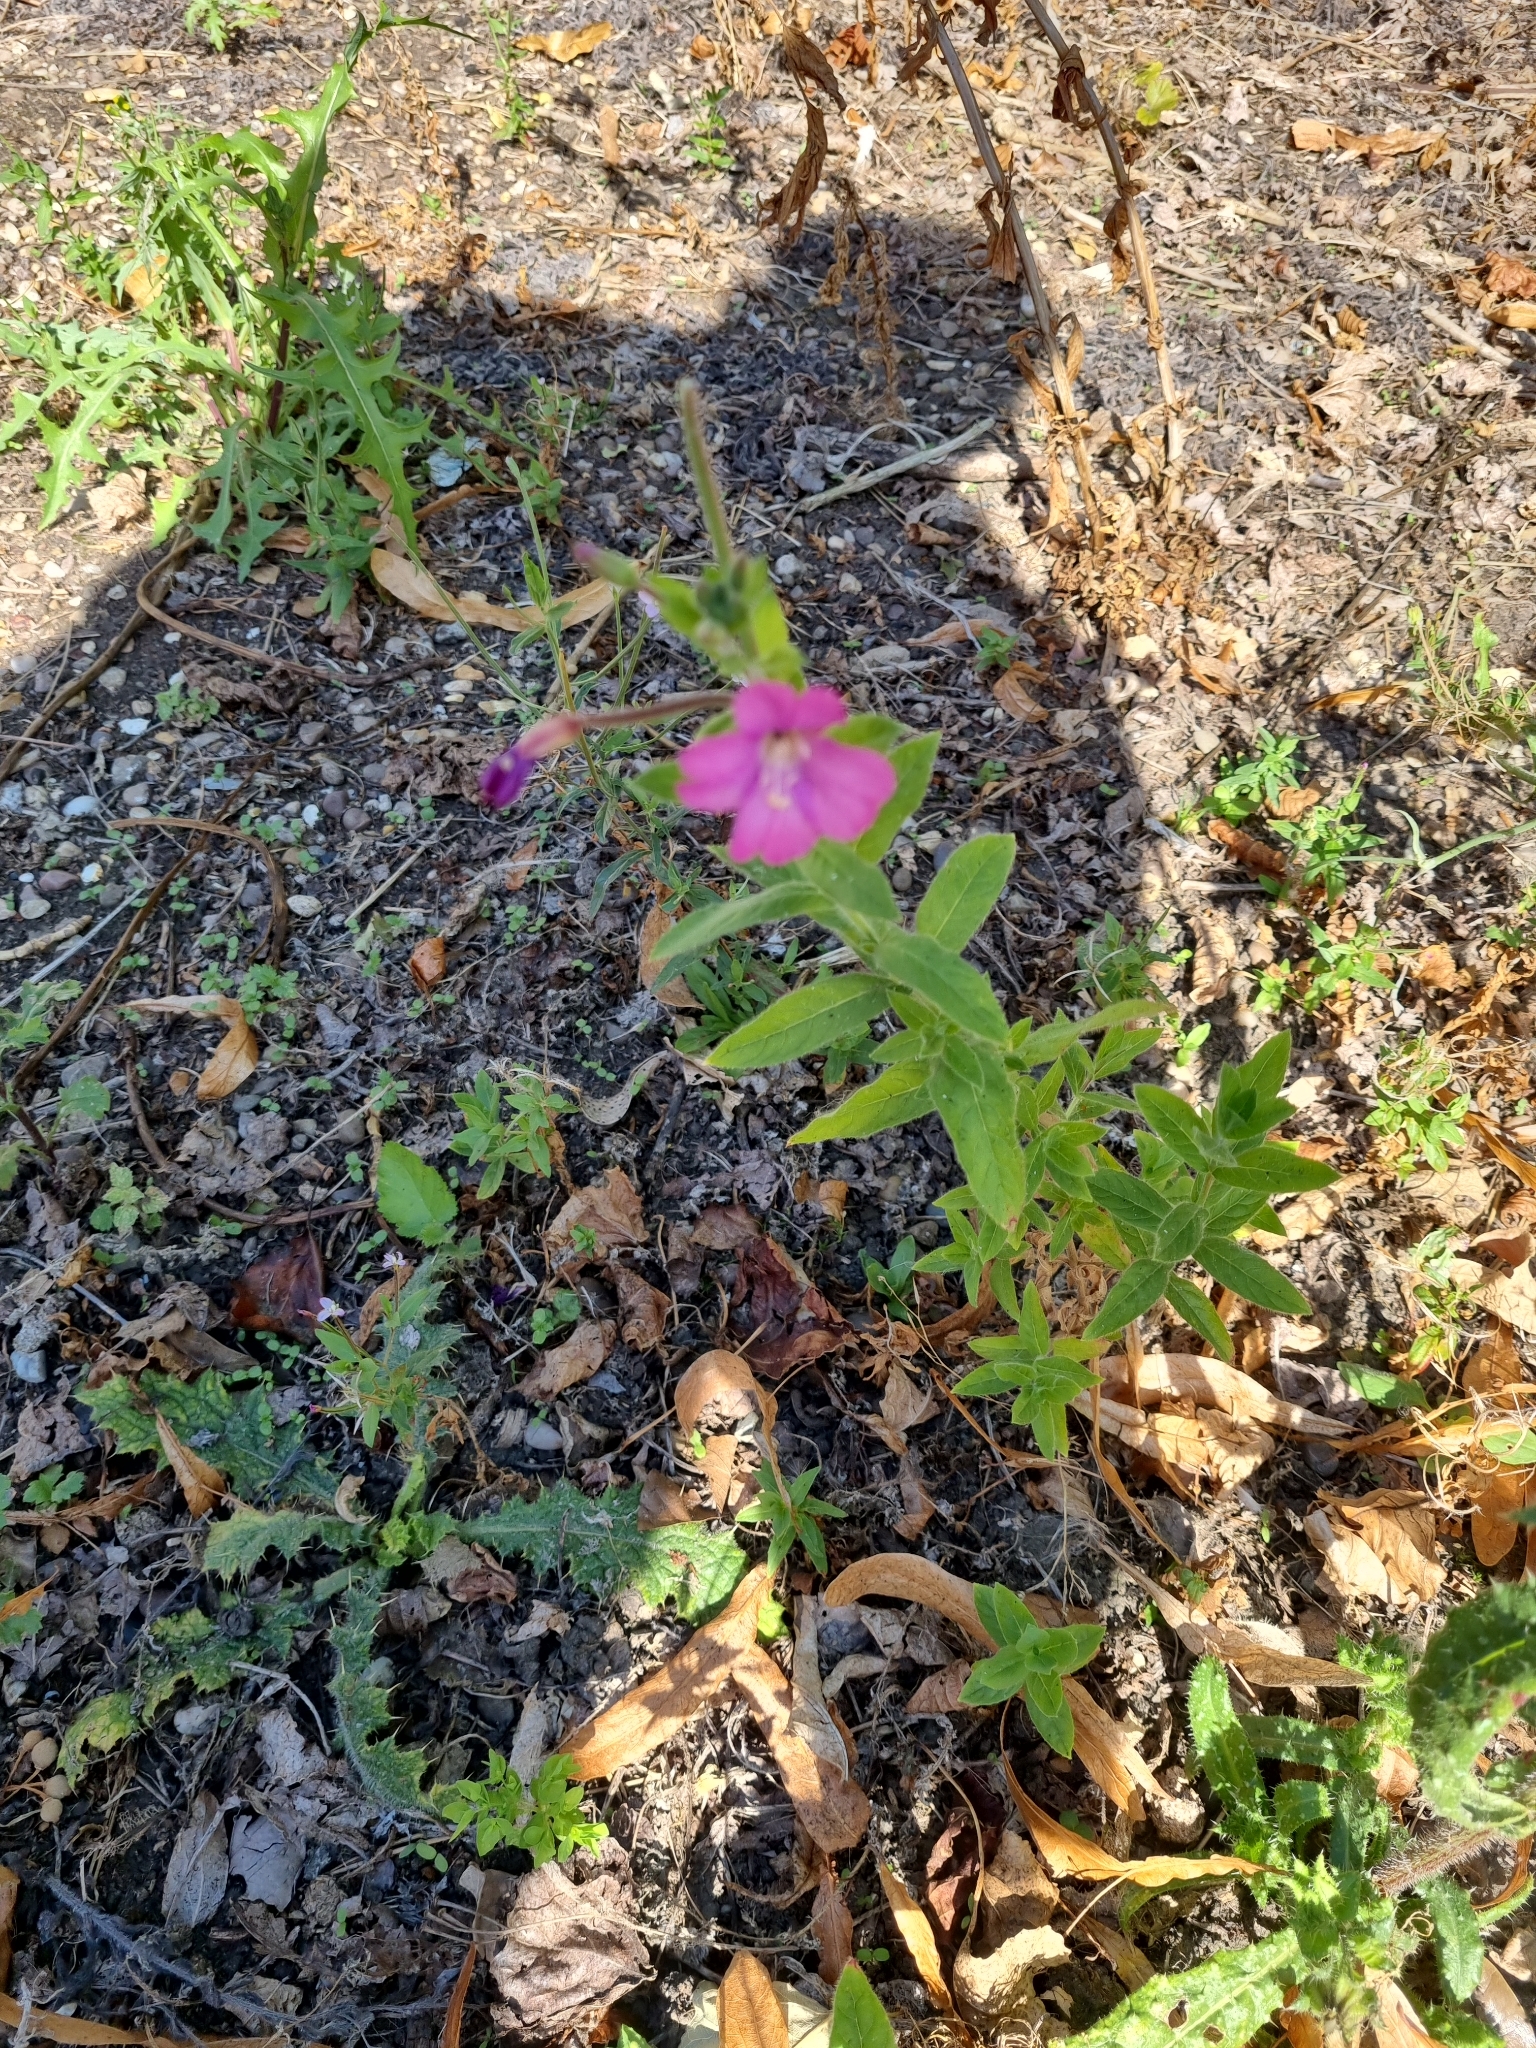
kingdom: Plantae
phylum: Tracheophyta
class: Magnoliopsida
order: Myrtales
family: Onagraceae
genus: Epilobium
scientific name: Epilobium hirsutum
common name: Great willowherb
